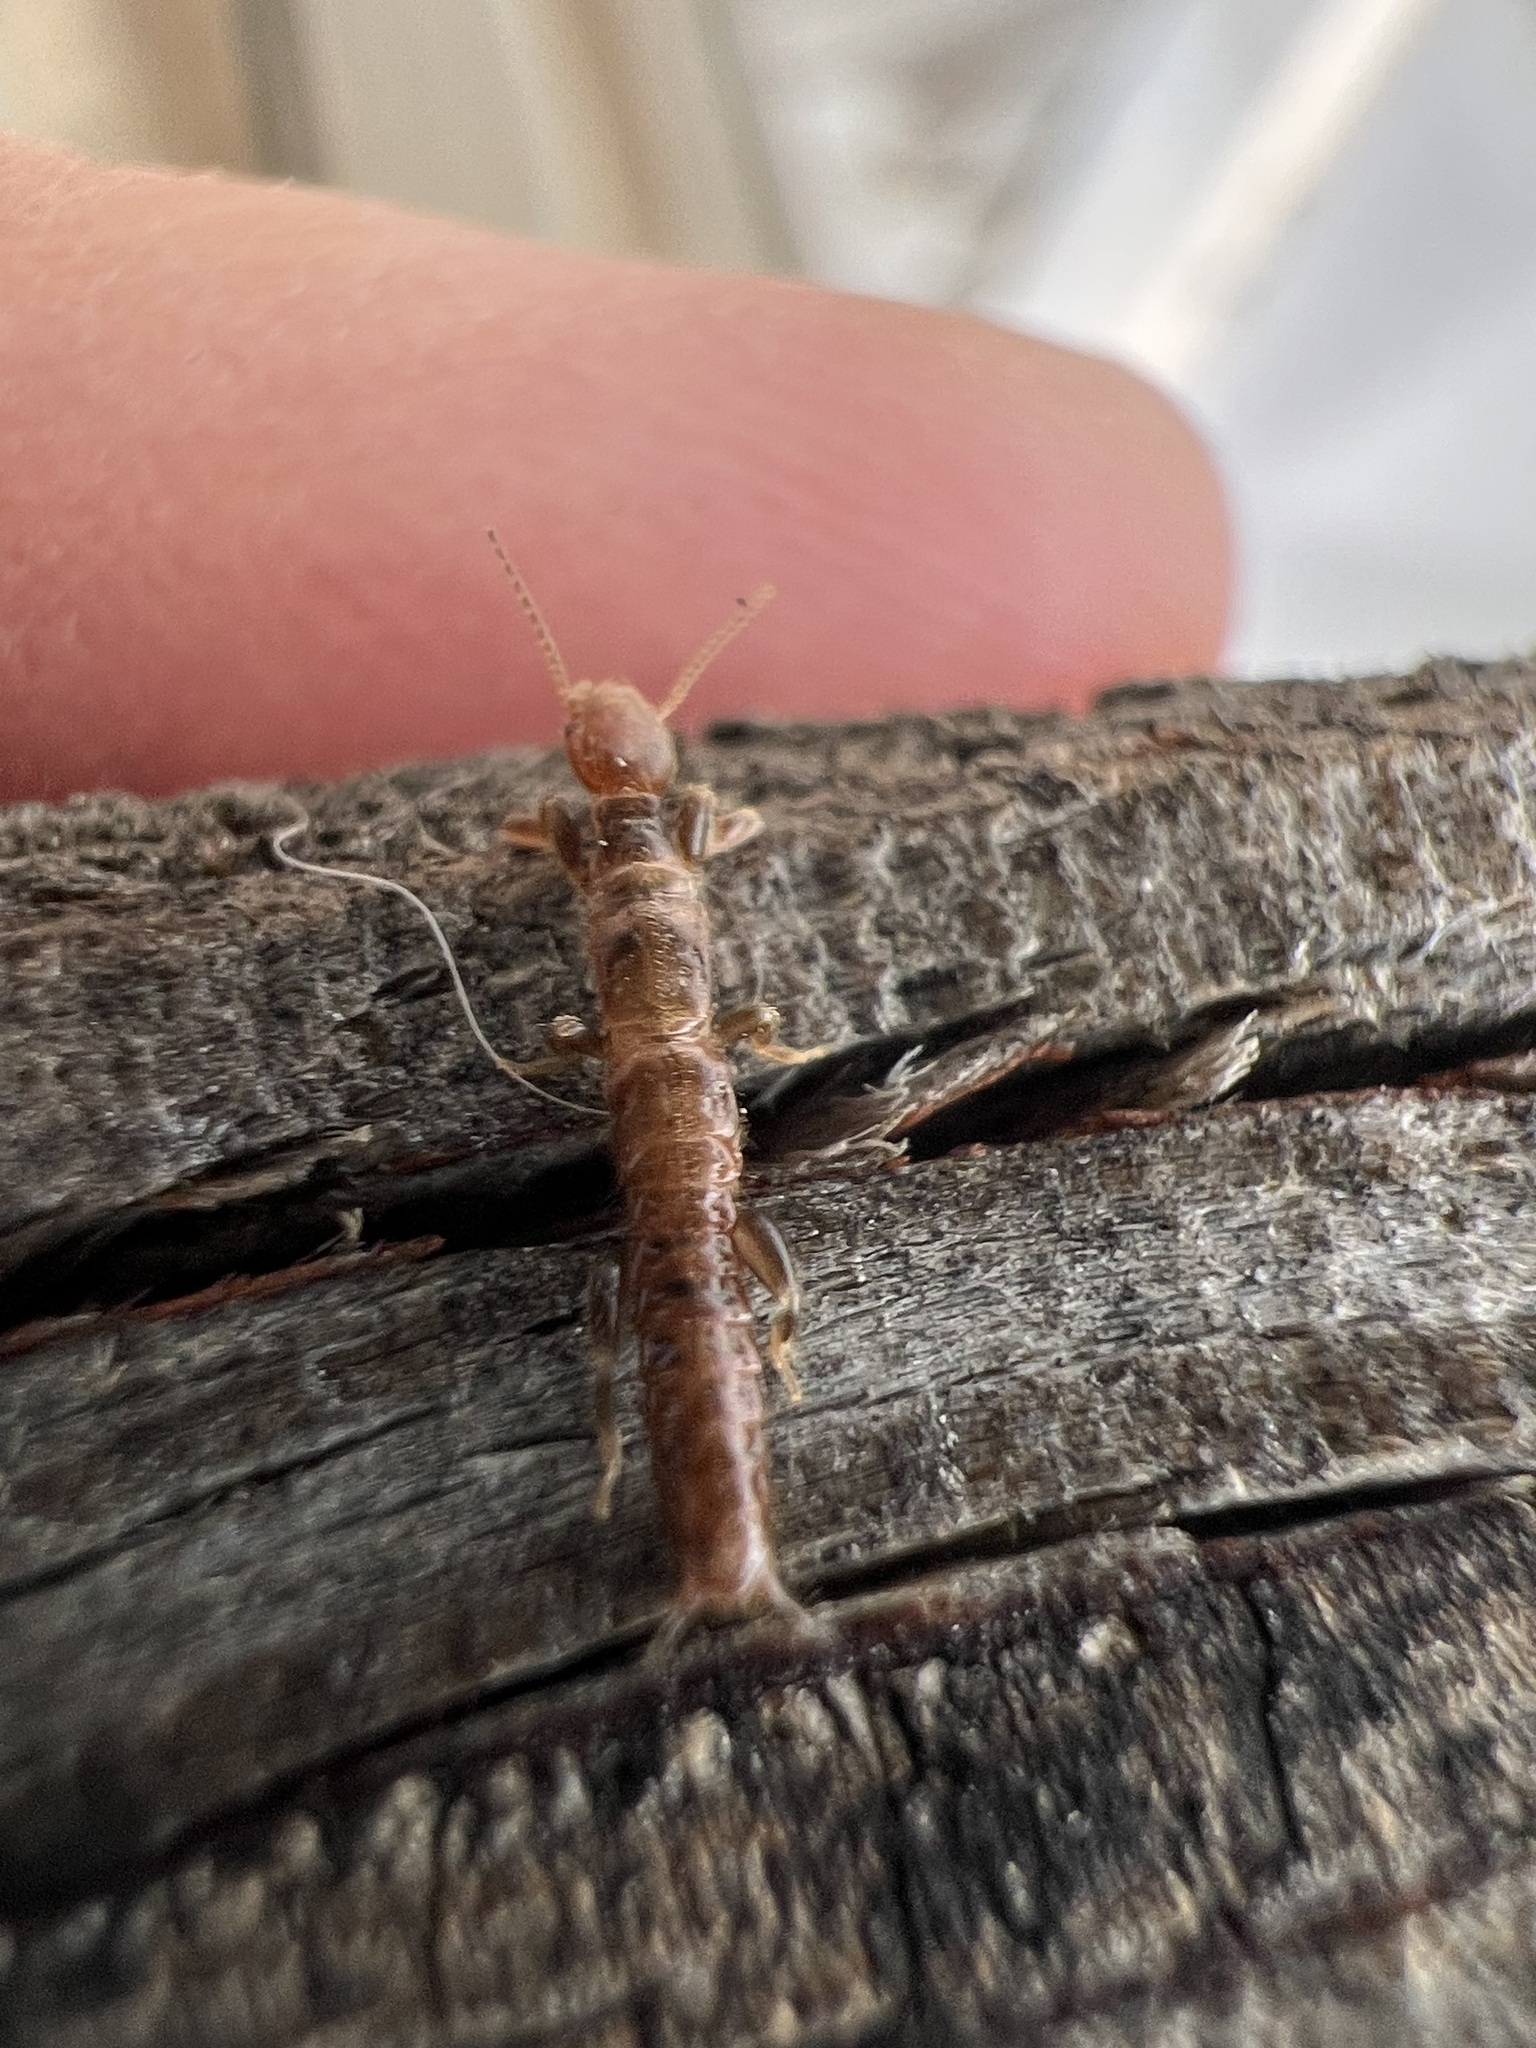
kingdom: Animalia
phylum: Arthropoda
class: Insecta
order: Embioptera
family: Oligotomidae
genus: Oligotoma
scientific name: Oligotoma nigra
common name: Black webspinner
